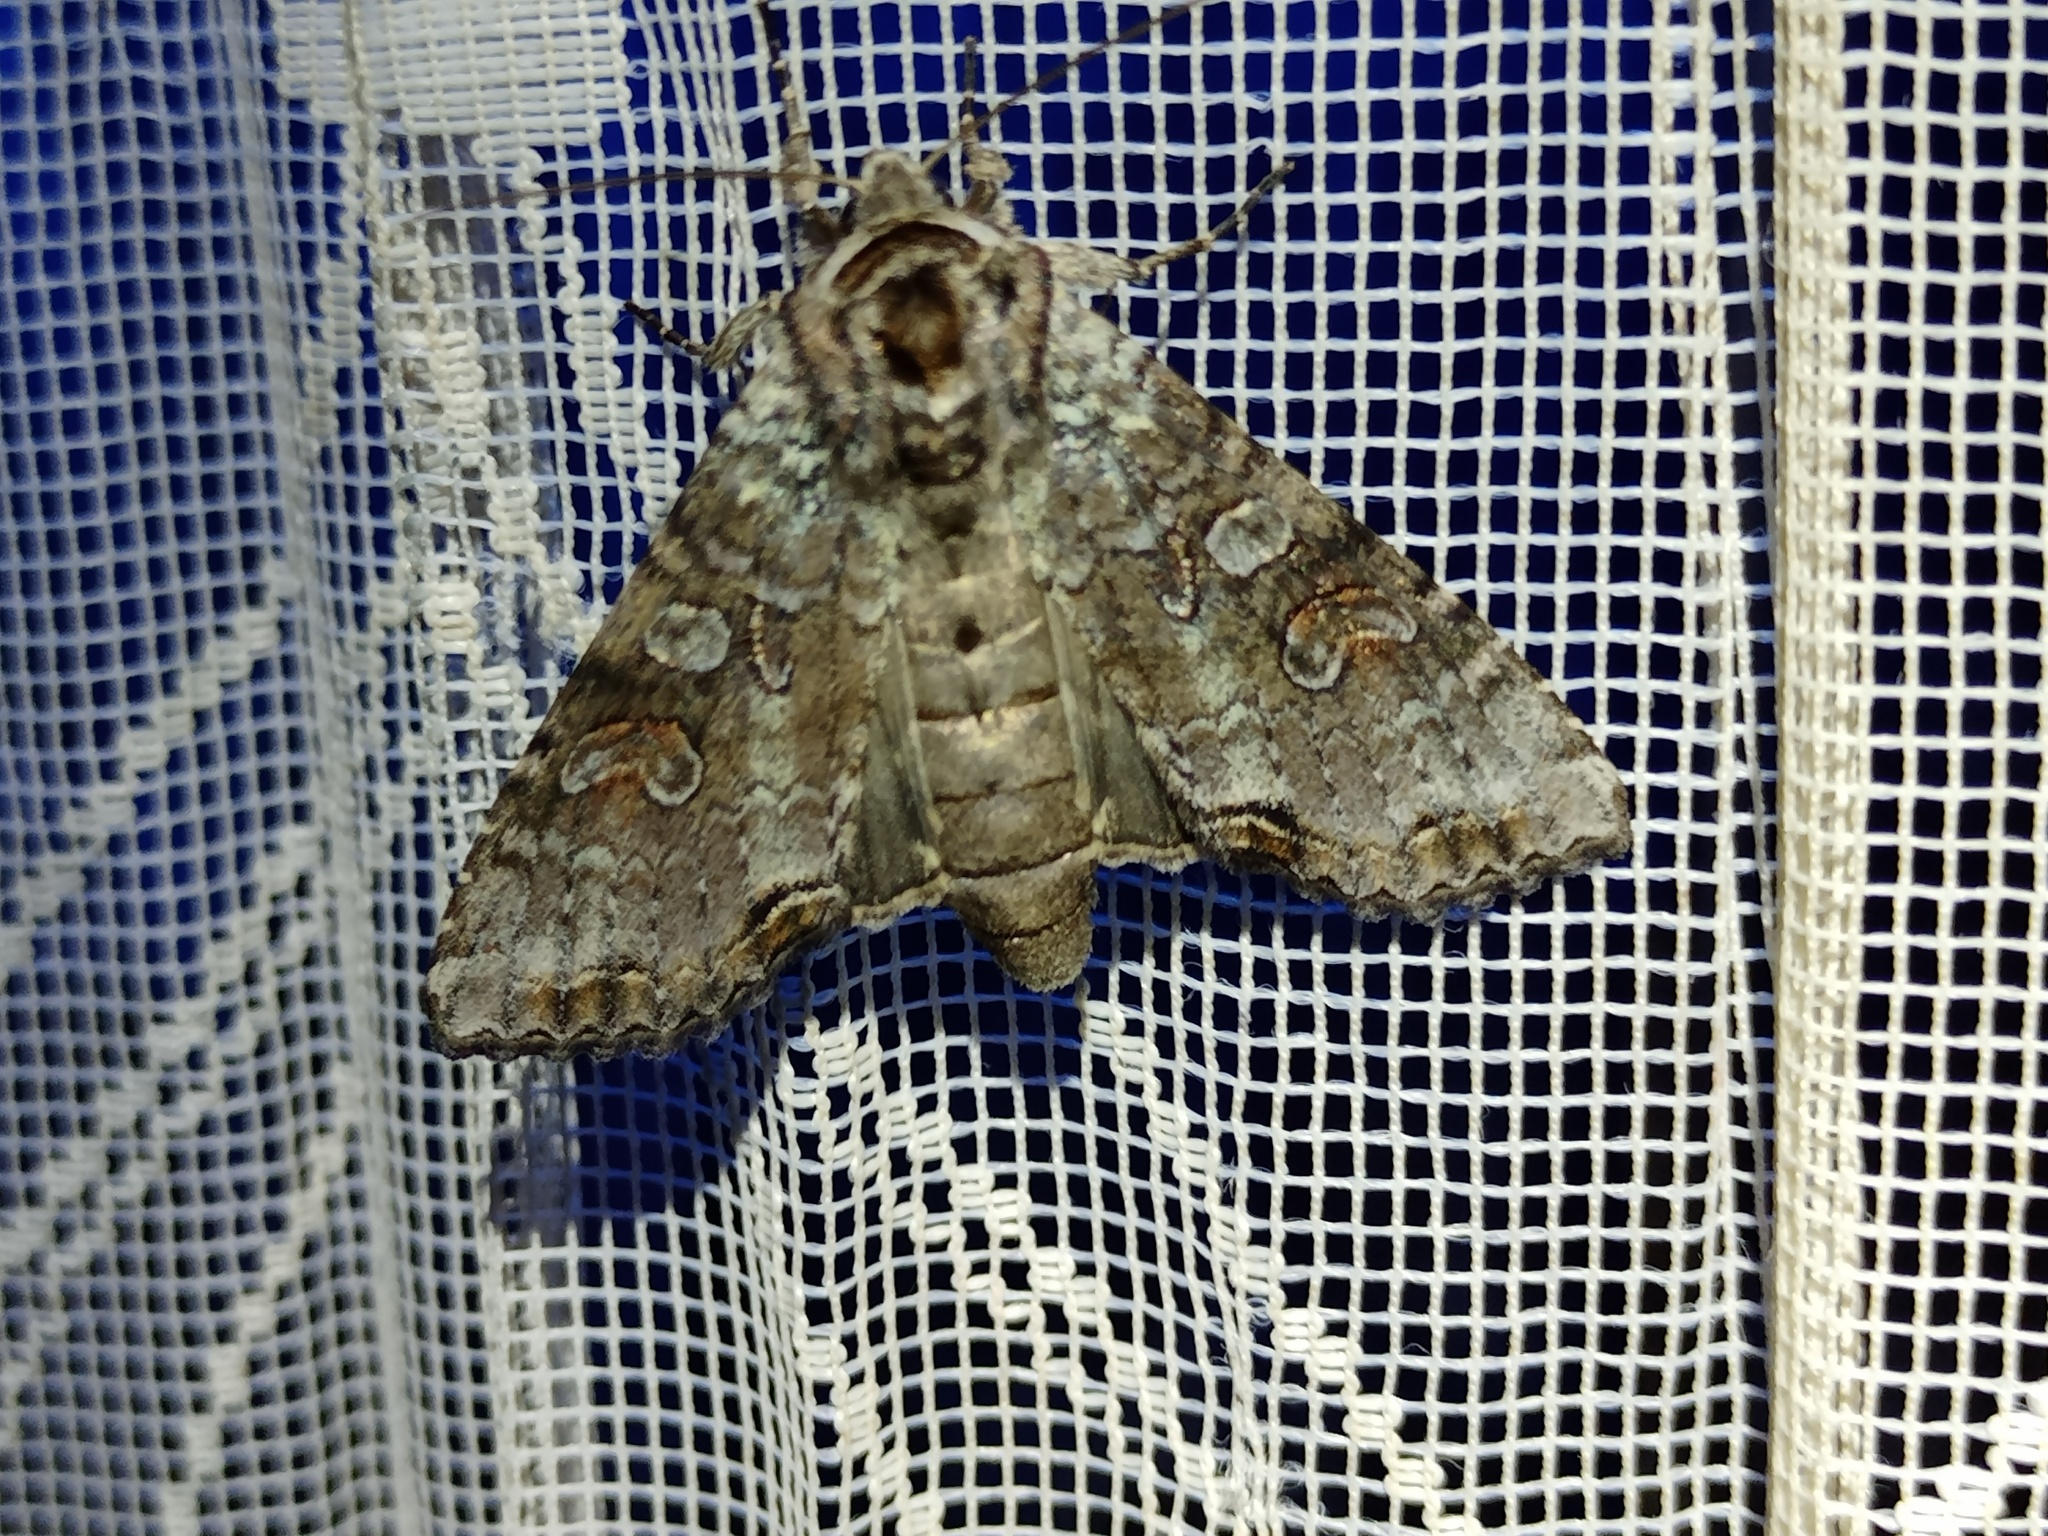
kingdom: Animalia
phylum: Arthropoda
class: Insecta
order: Lepidoptera
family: Noctuidae
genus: Polia
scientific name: Polia hepatica
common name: Silvery arches
